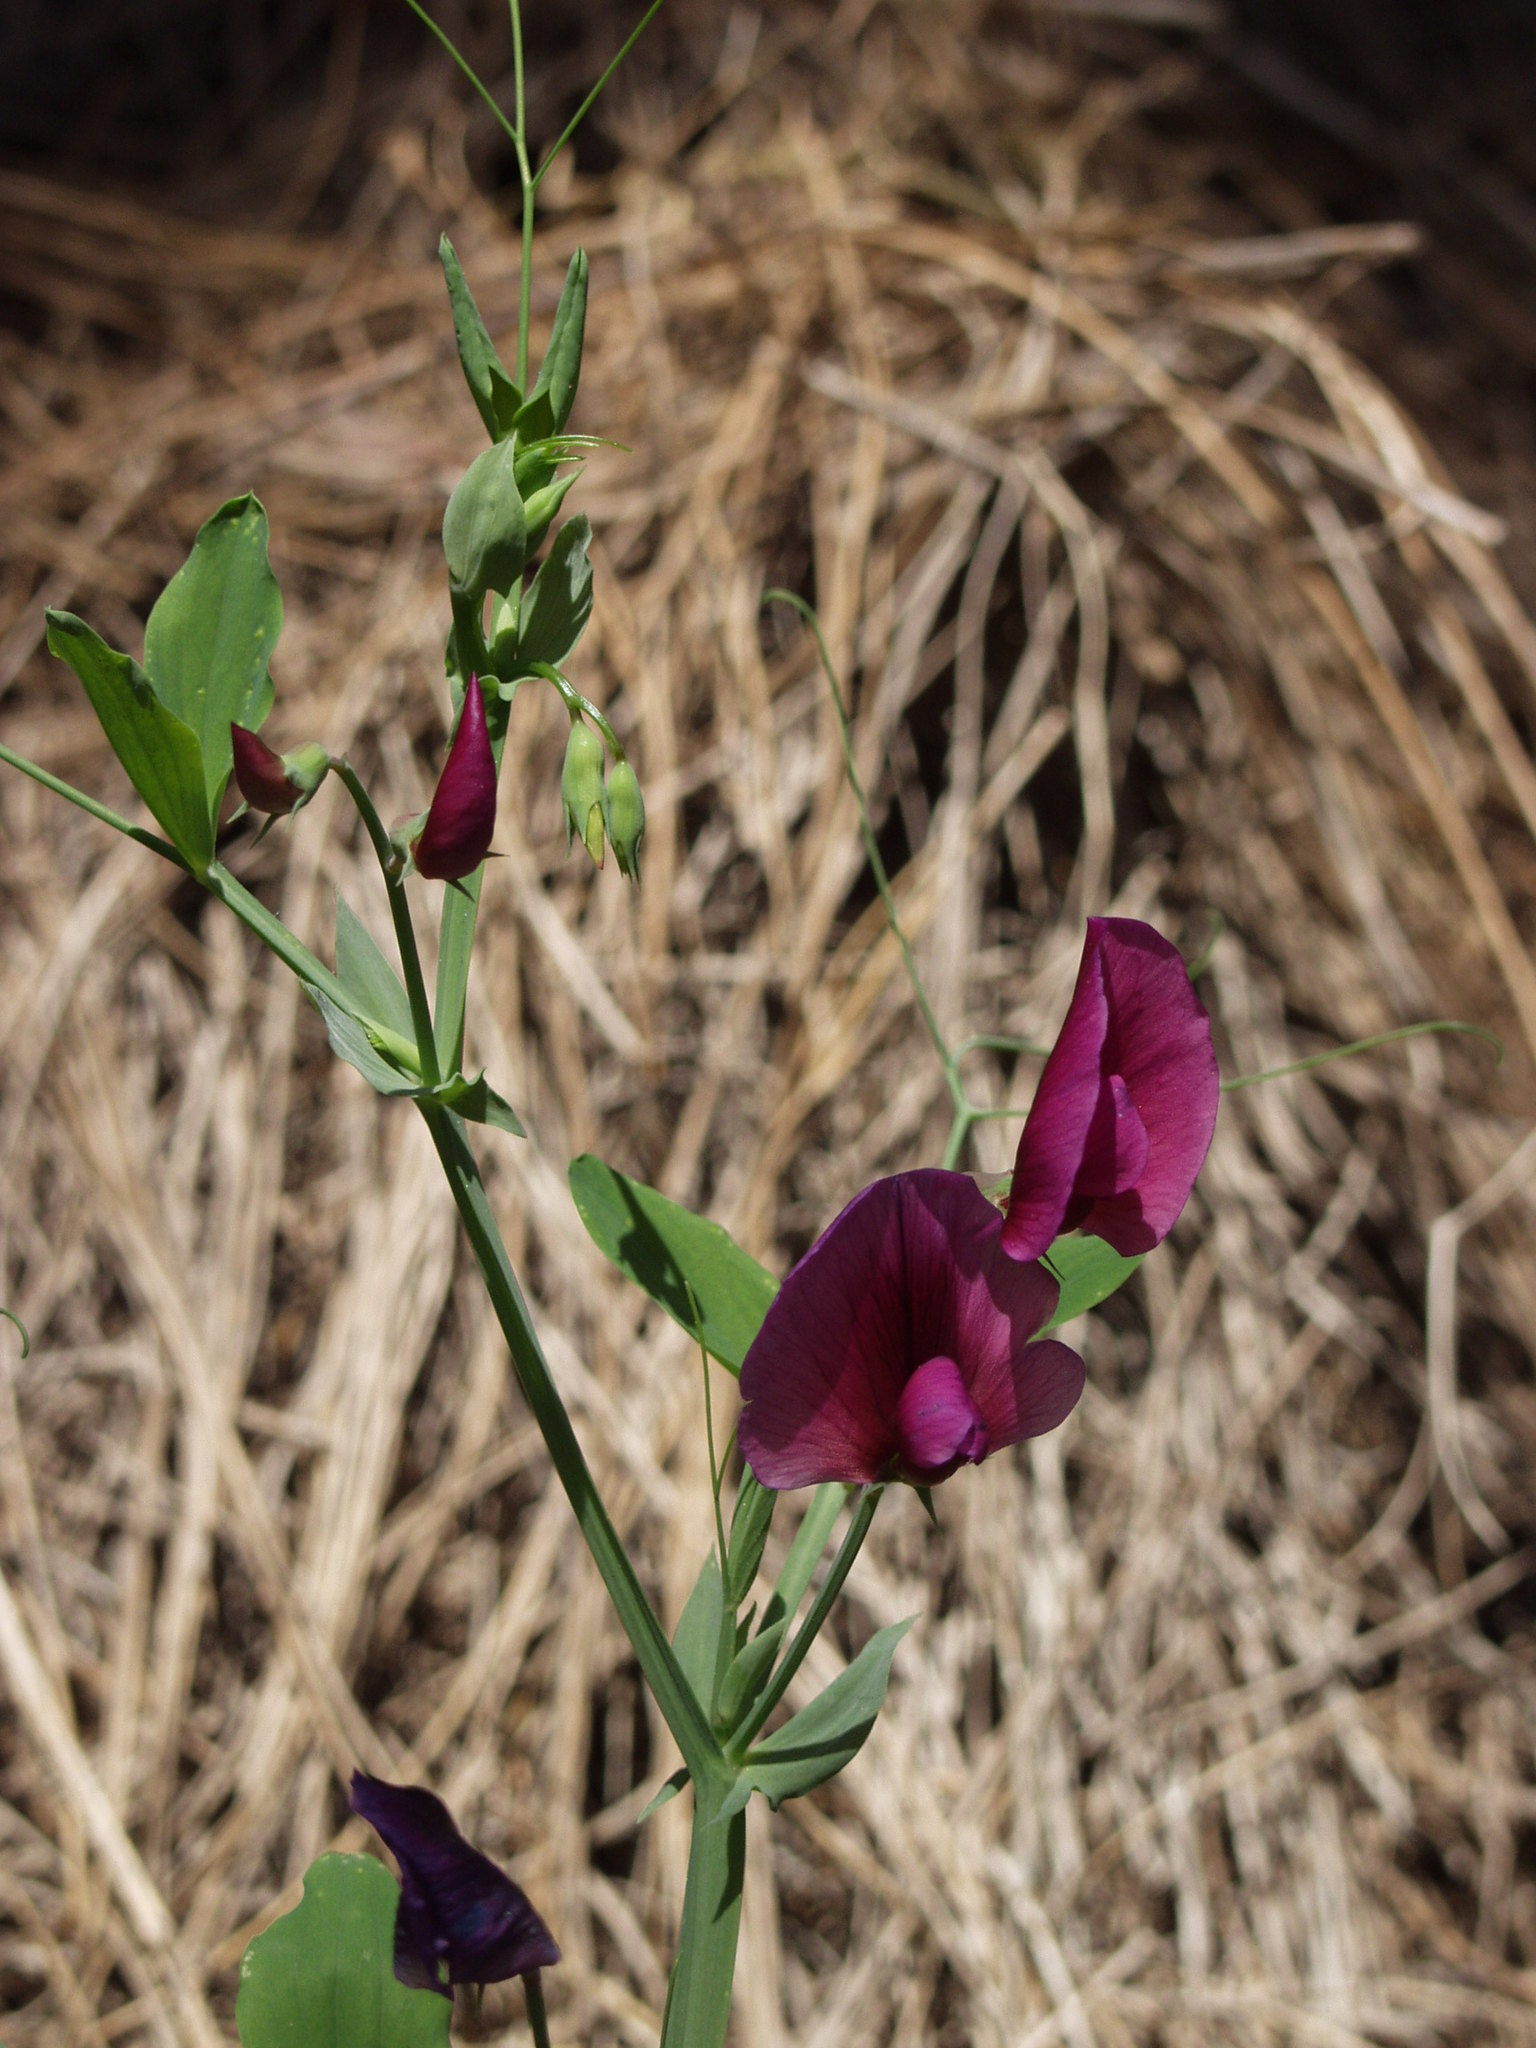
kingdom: Plantae
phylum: Tracheophyta
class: Magnoliopsida
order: Fabales
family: Fabaceae
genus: Lathyrus
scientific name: Lathyrus tingitanus
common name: Tangier pea
